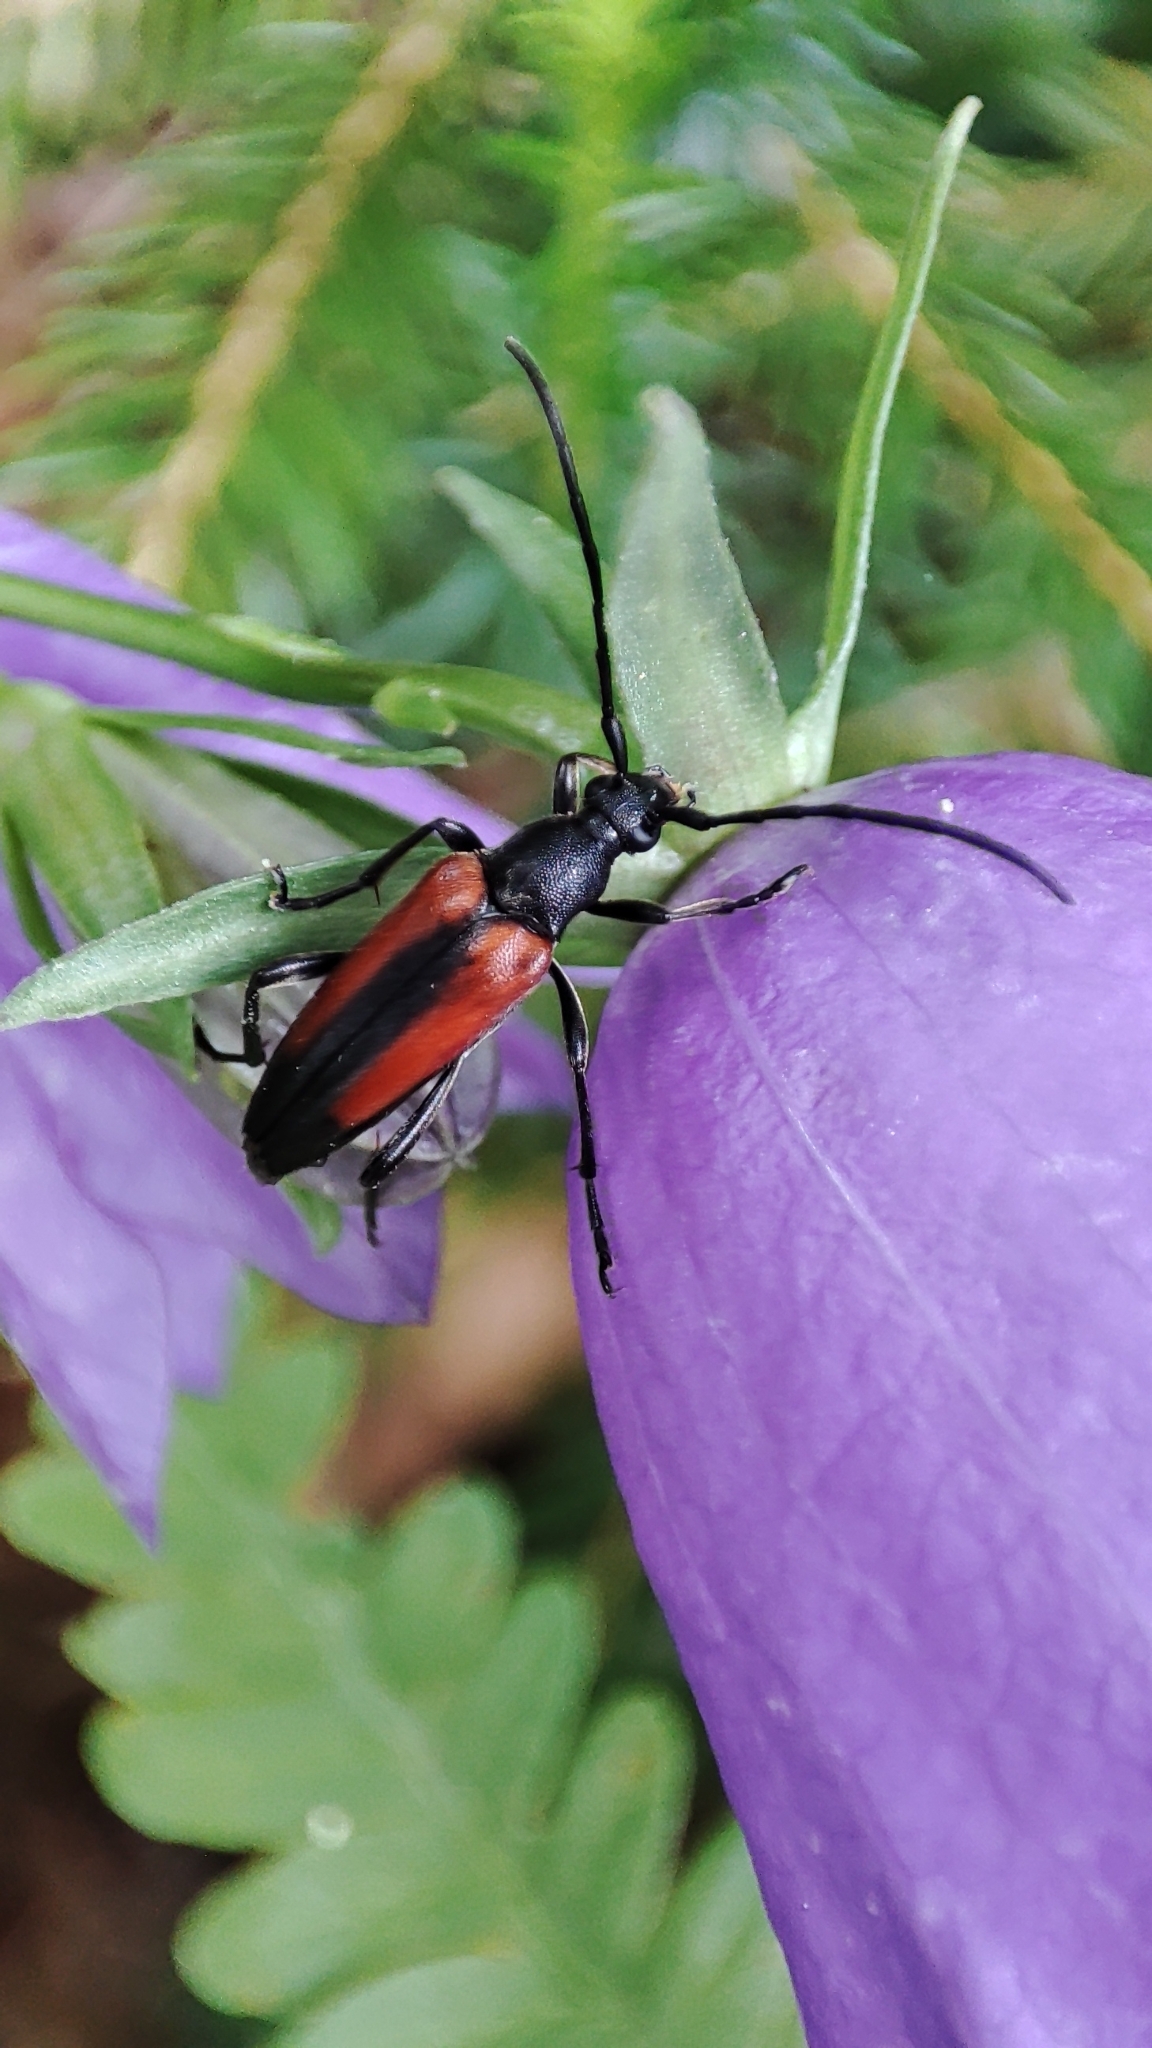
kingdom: Animalia
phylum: Arthropoda
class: Insecta
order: Coleoptera
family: Cerambycidae
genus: Stenurella
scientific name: Stenurella melanura
